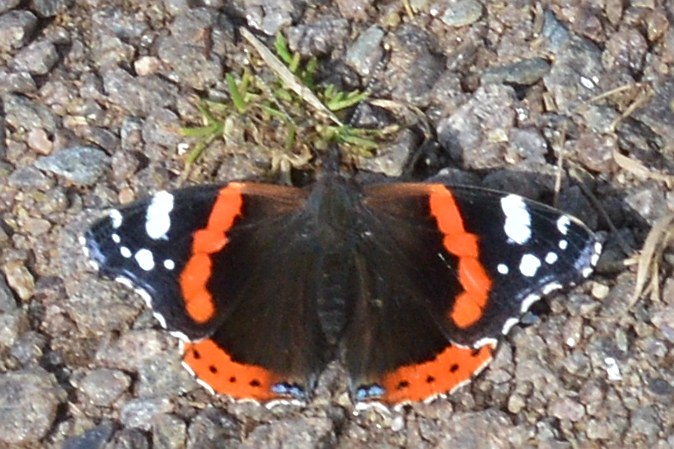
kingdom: Animalia
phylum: Arthropoda
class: Insecta
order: Lepidoptera
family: Nymphalidae
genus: Vanessa
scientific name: Vanessa atalanta
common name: Red admiral
